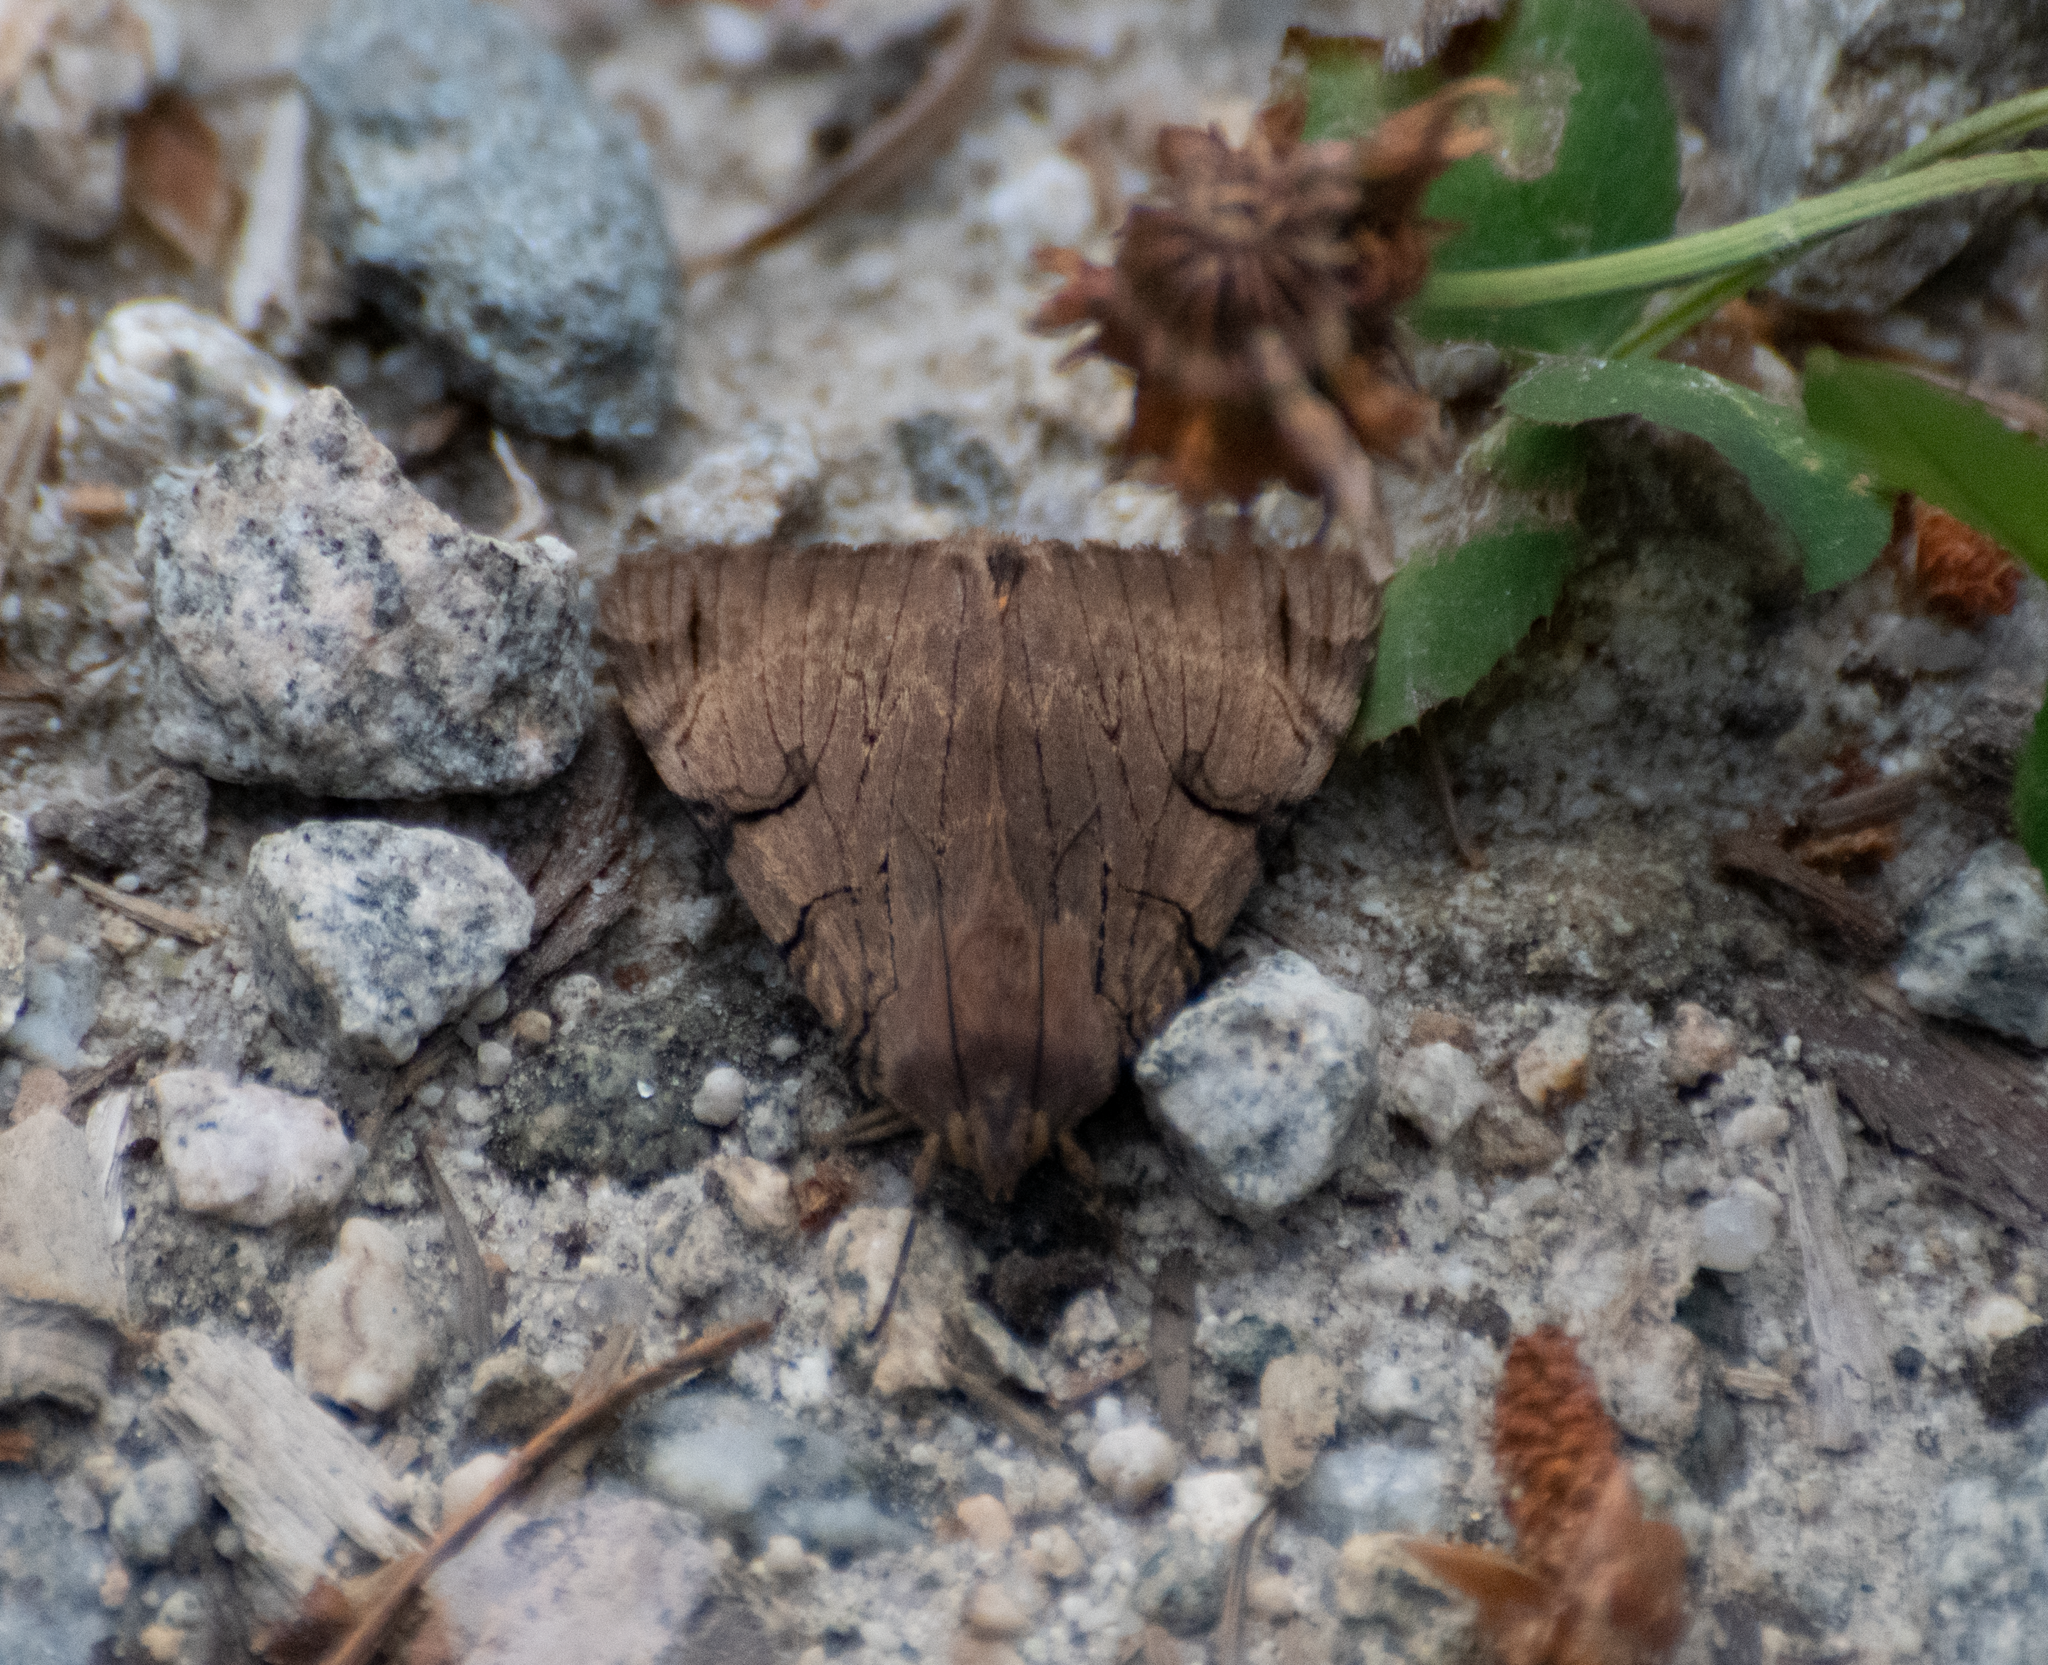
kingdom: Animalia
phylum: Arthropoda
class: Insecta
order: Lepidoptera
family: Erebidae
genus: Drasteria
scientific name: Drasteria ochracea
